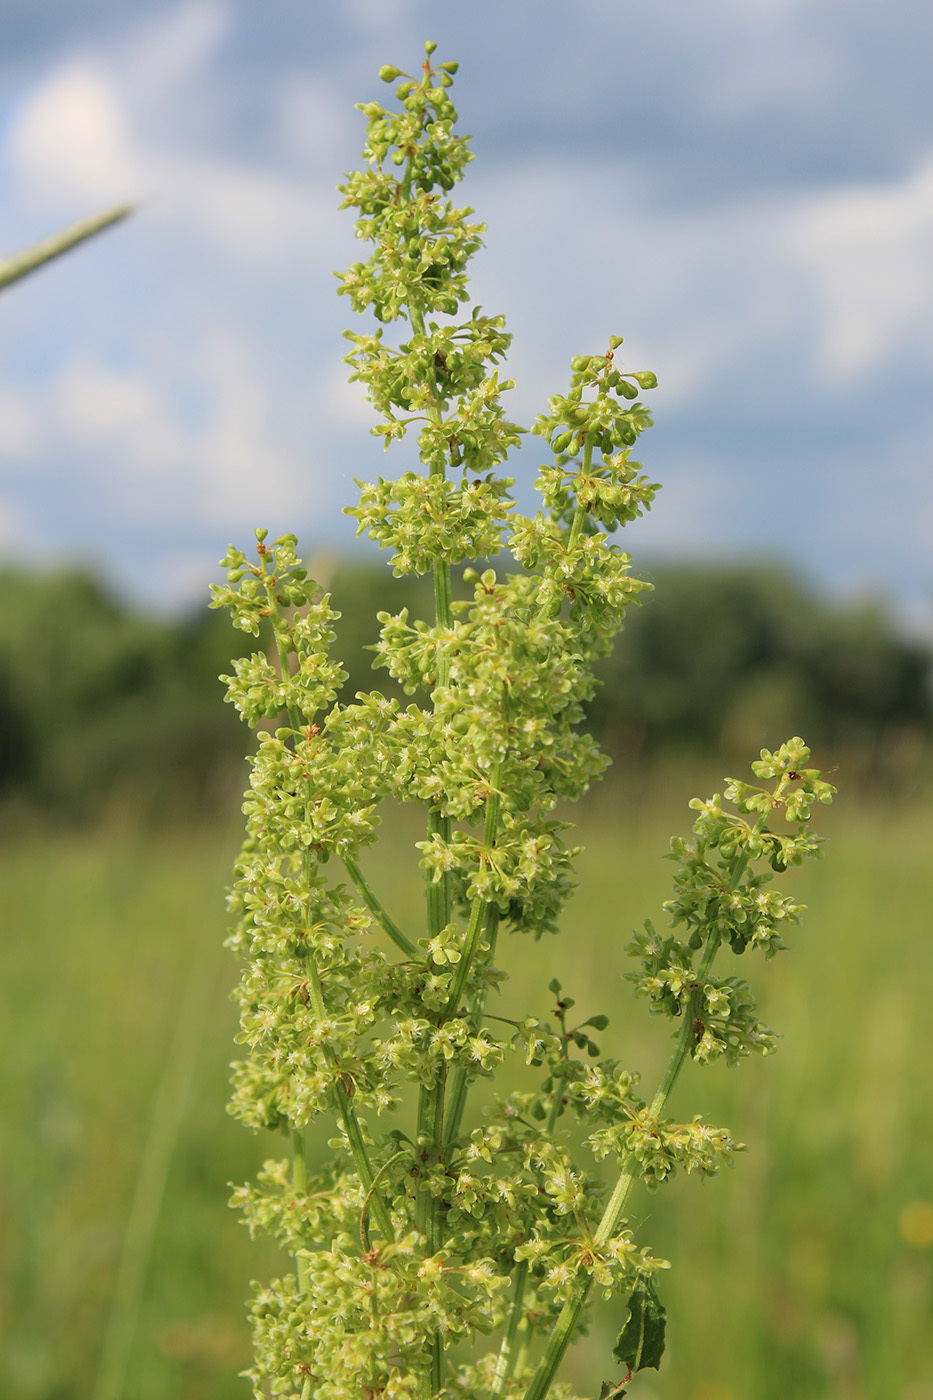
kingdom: Plantae
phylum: Tracheophyta
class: Magnoliopsida
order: Caryophyllales
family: Polygonaceae
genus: Rumex
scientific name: Rumex confertus
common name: Russian dock
